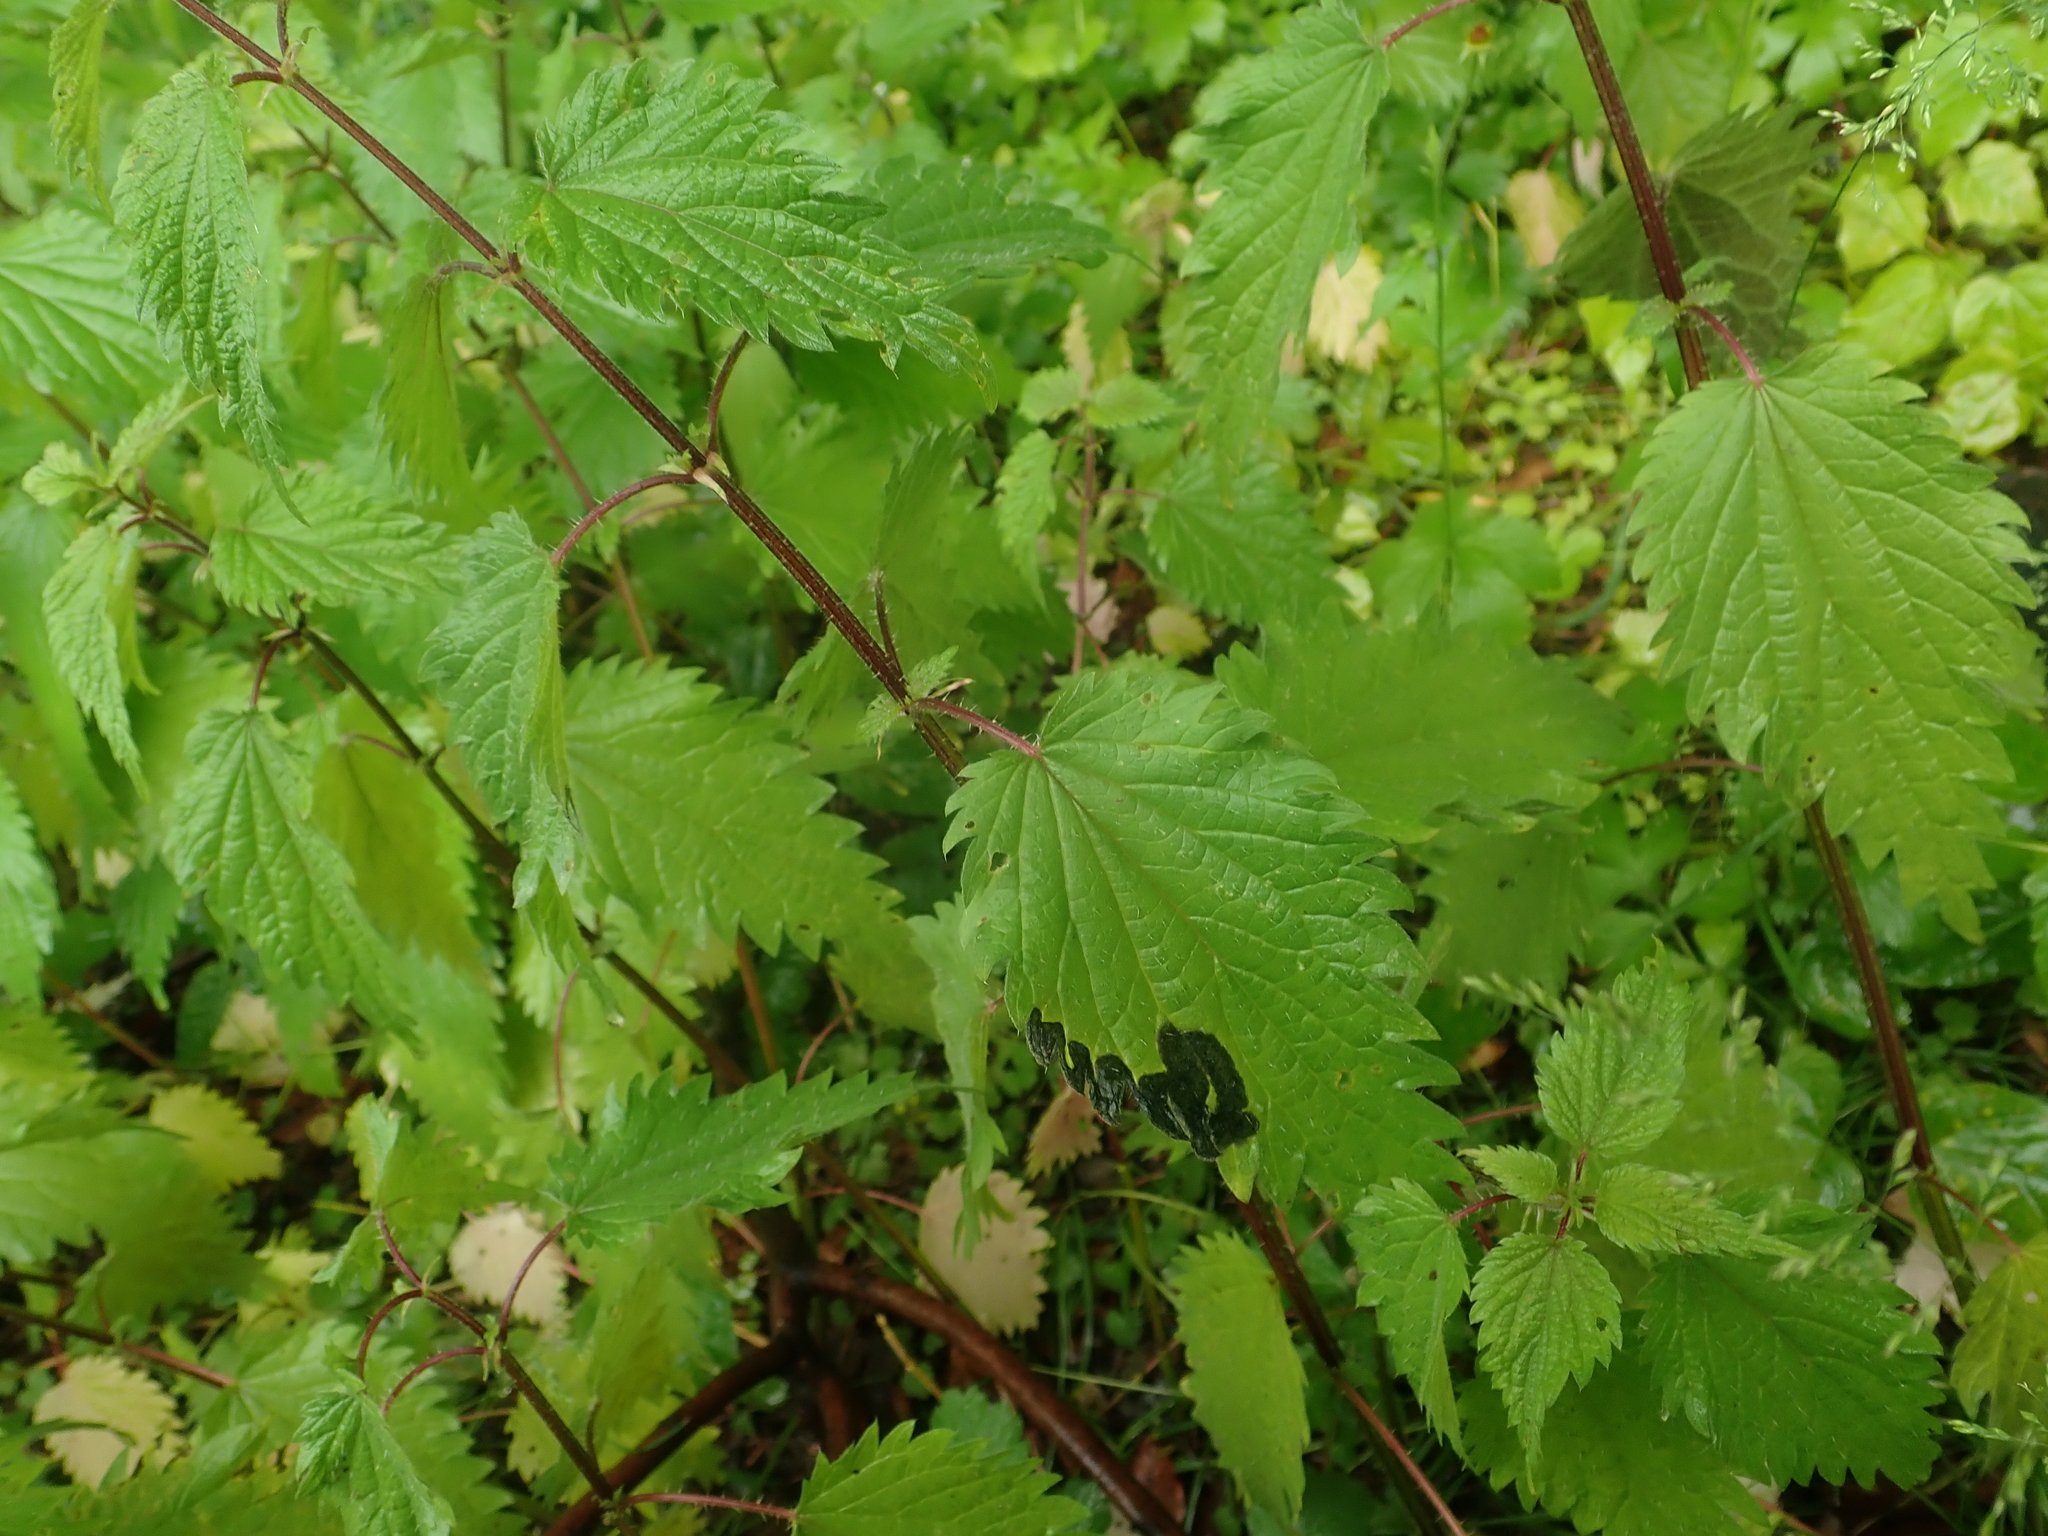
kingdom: Plantae
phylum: Tracheophyta
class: Magnoliopsida
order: Rosales
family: Urticaceae
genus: Urtica
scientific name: Urtica dioica
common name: Common nettle
